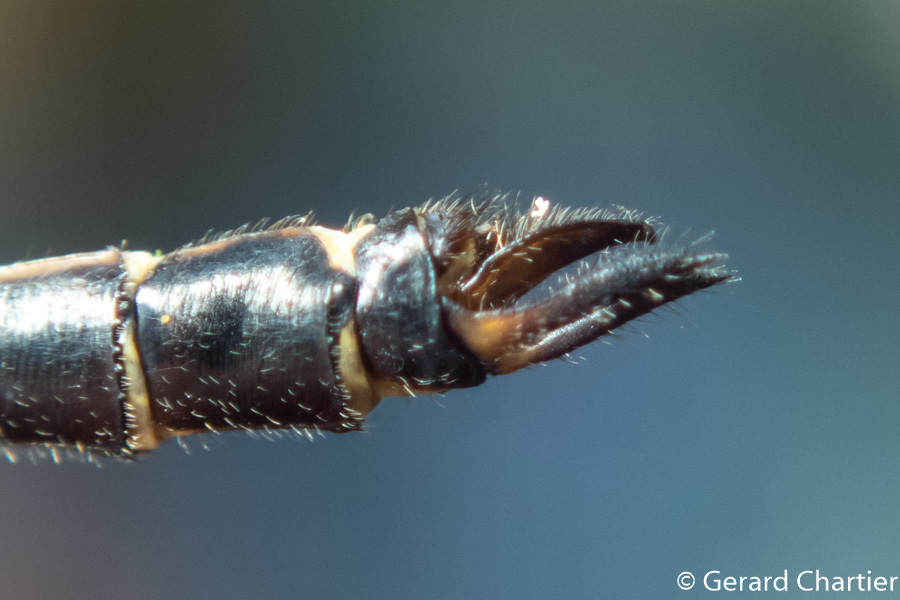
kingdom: Animalia
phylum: Arthropoda
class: Insecta
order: Odonata
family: Libellulidae
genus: Pornothemis
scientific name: Pornothemis serrata
